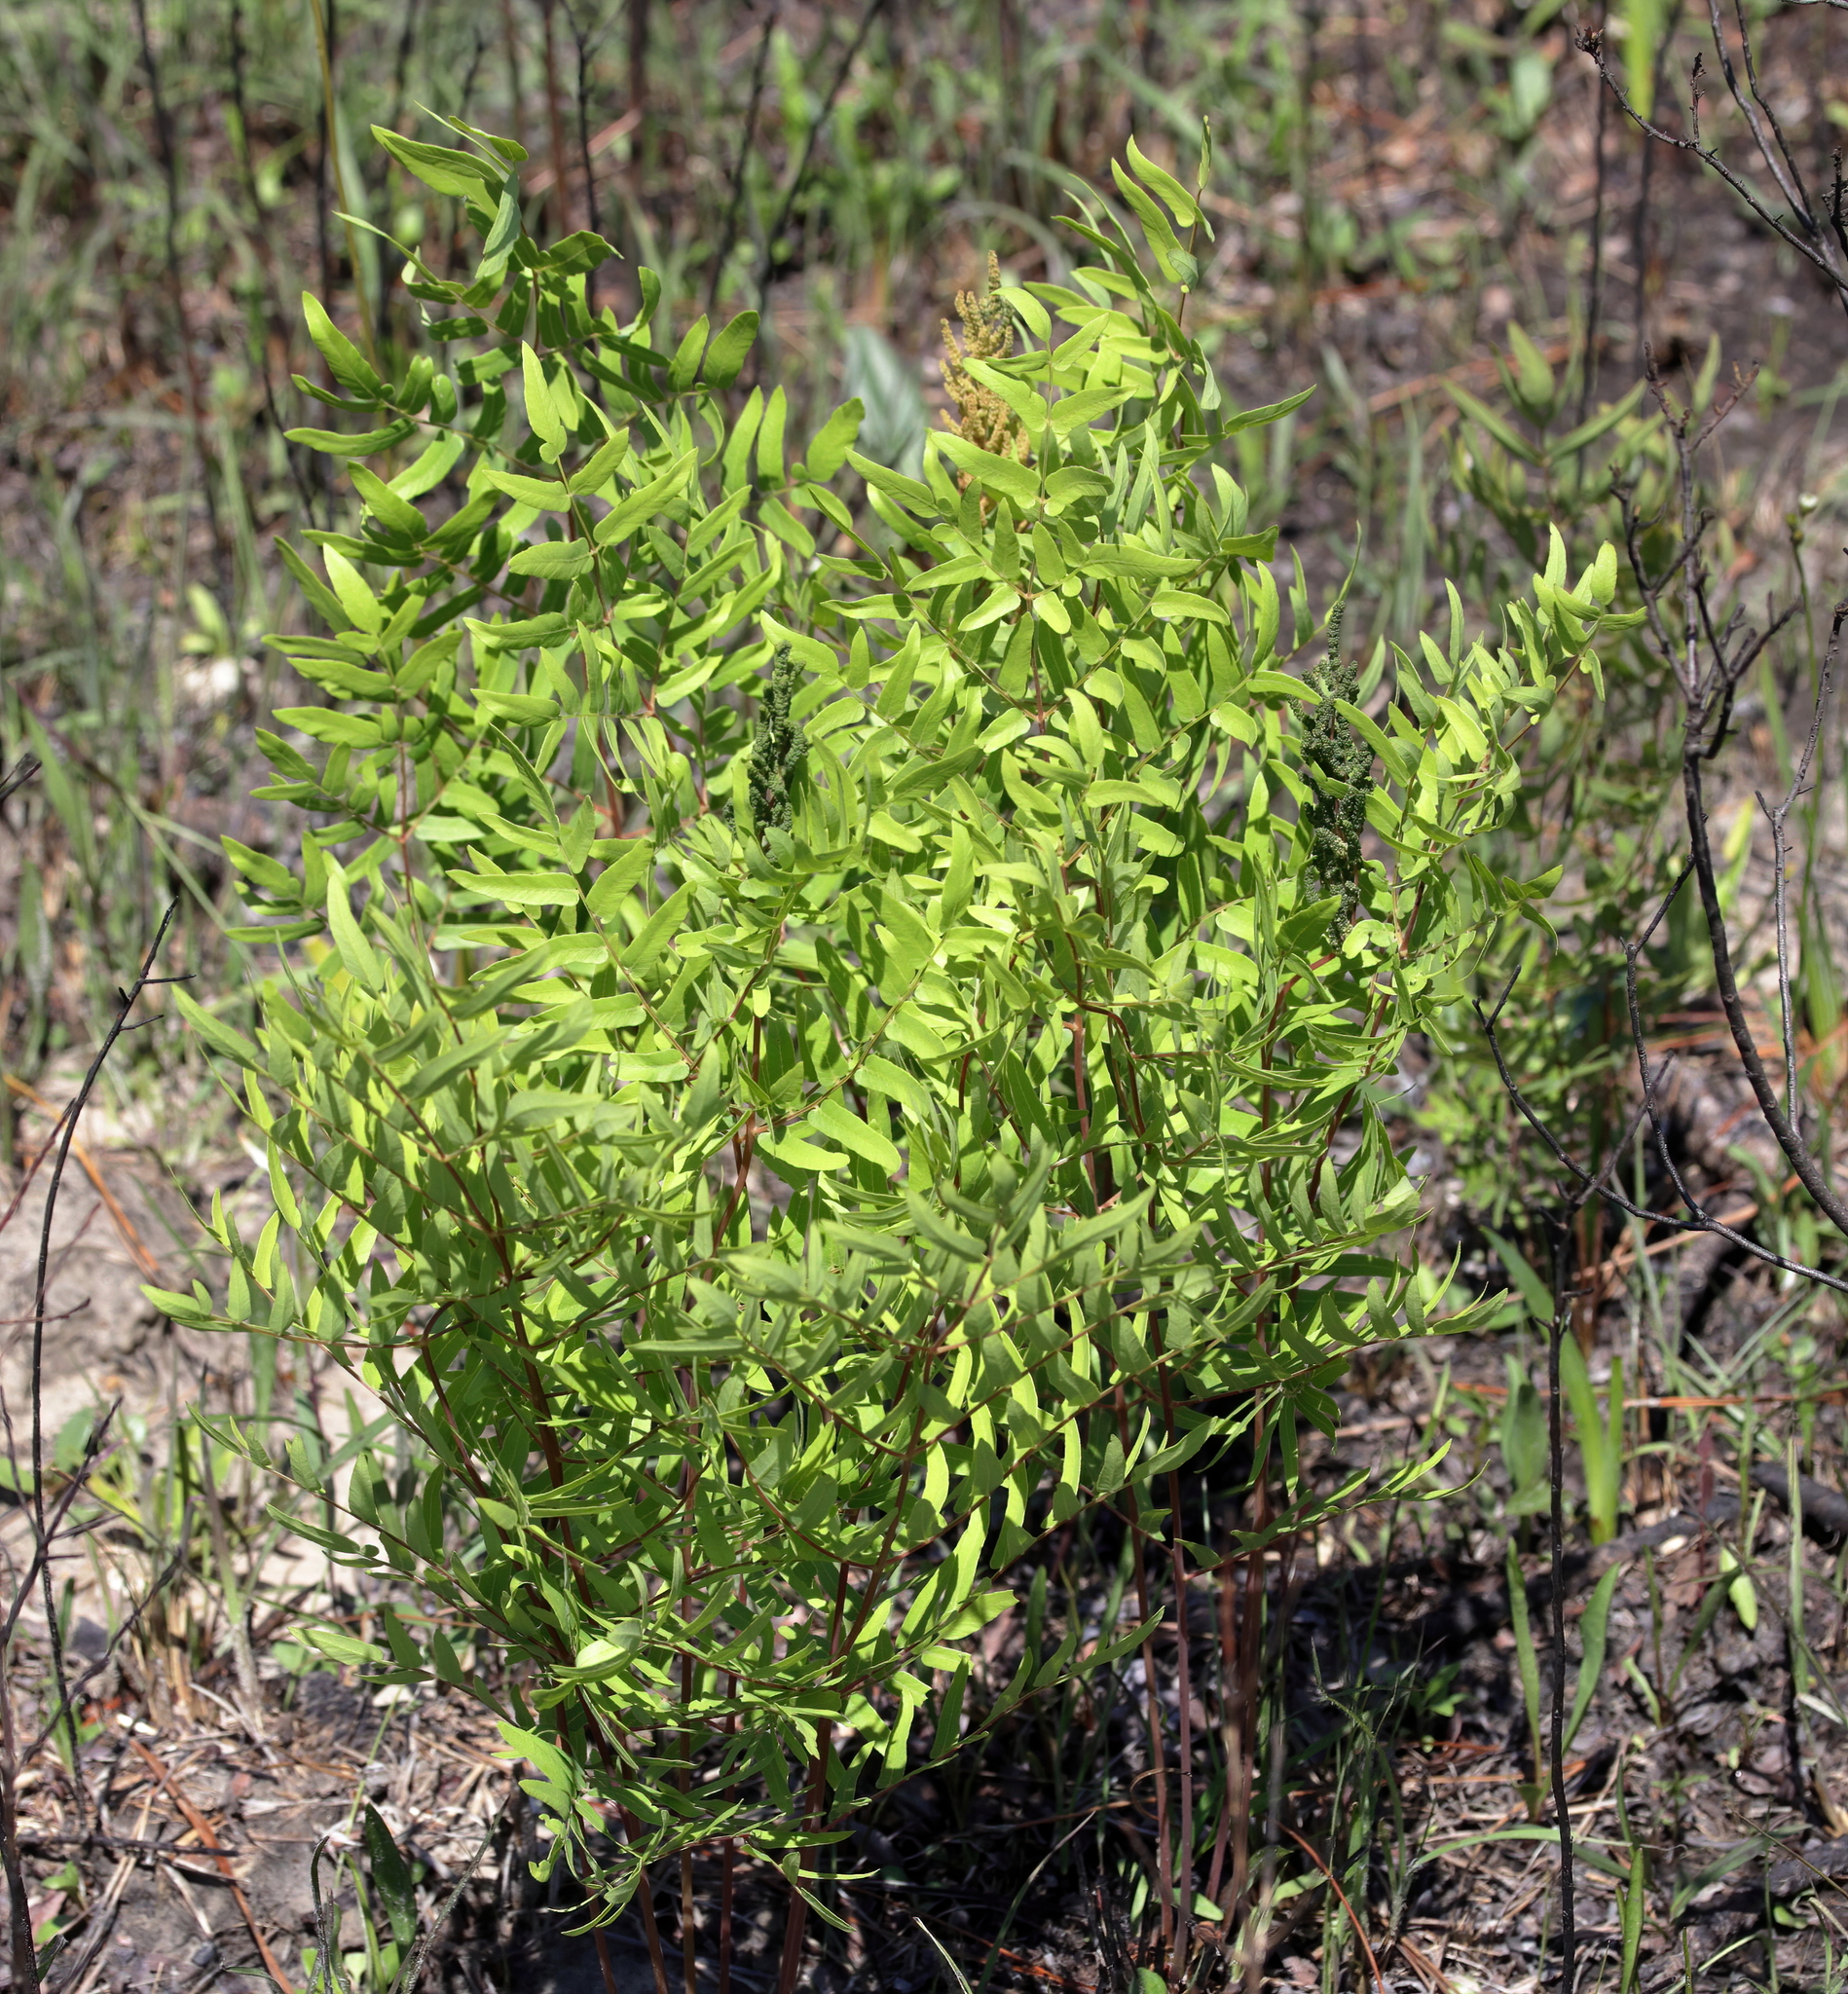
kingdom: Plantae
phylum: Tracheophyta
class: Polypodiopsida
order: Osmundales
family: Osmundaceae
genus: Osmunda
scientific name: Osmunda spectabilis
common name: American royal fern
